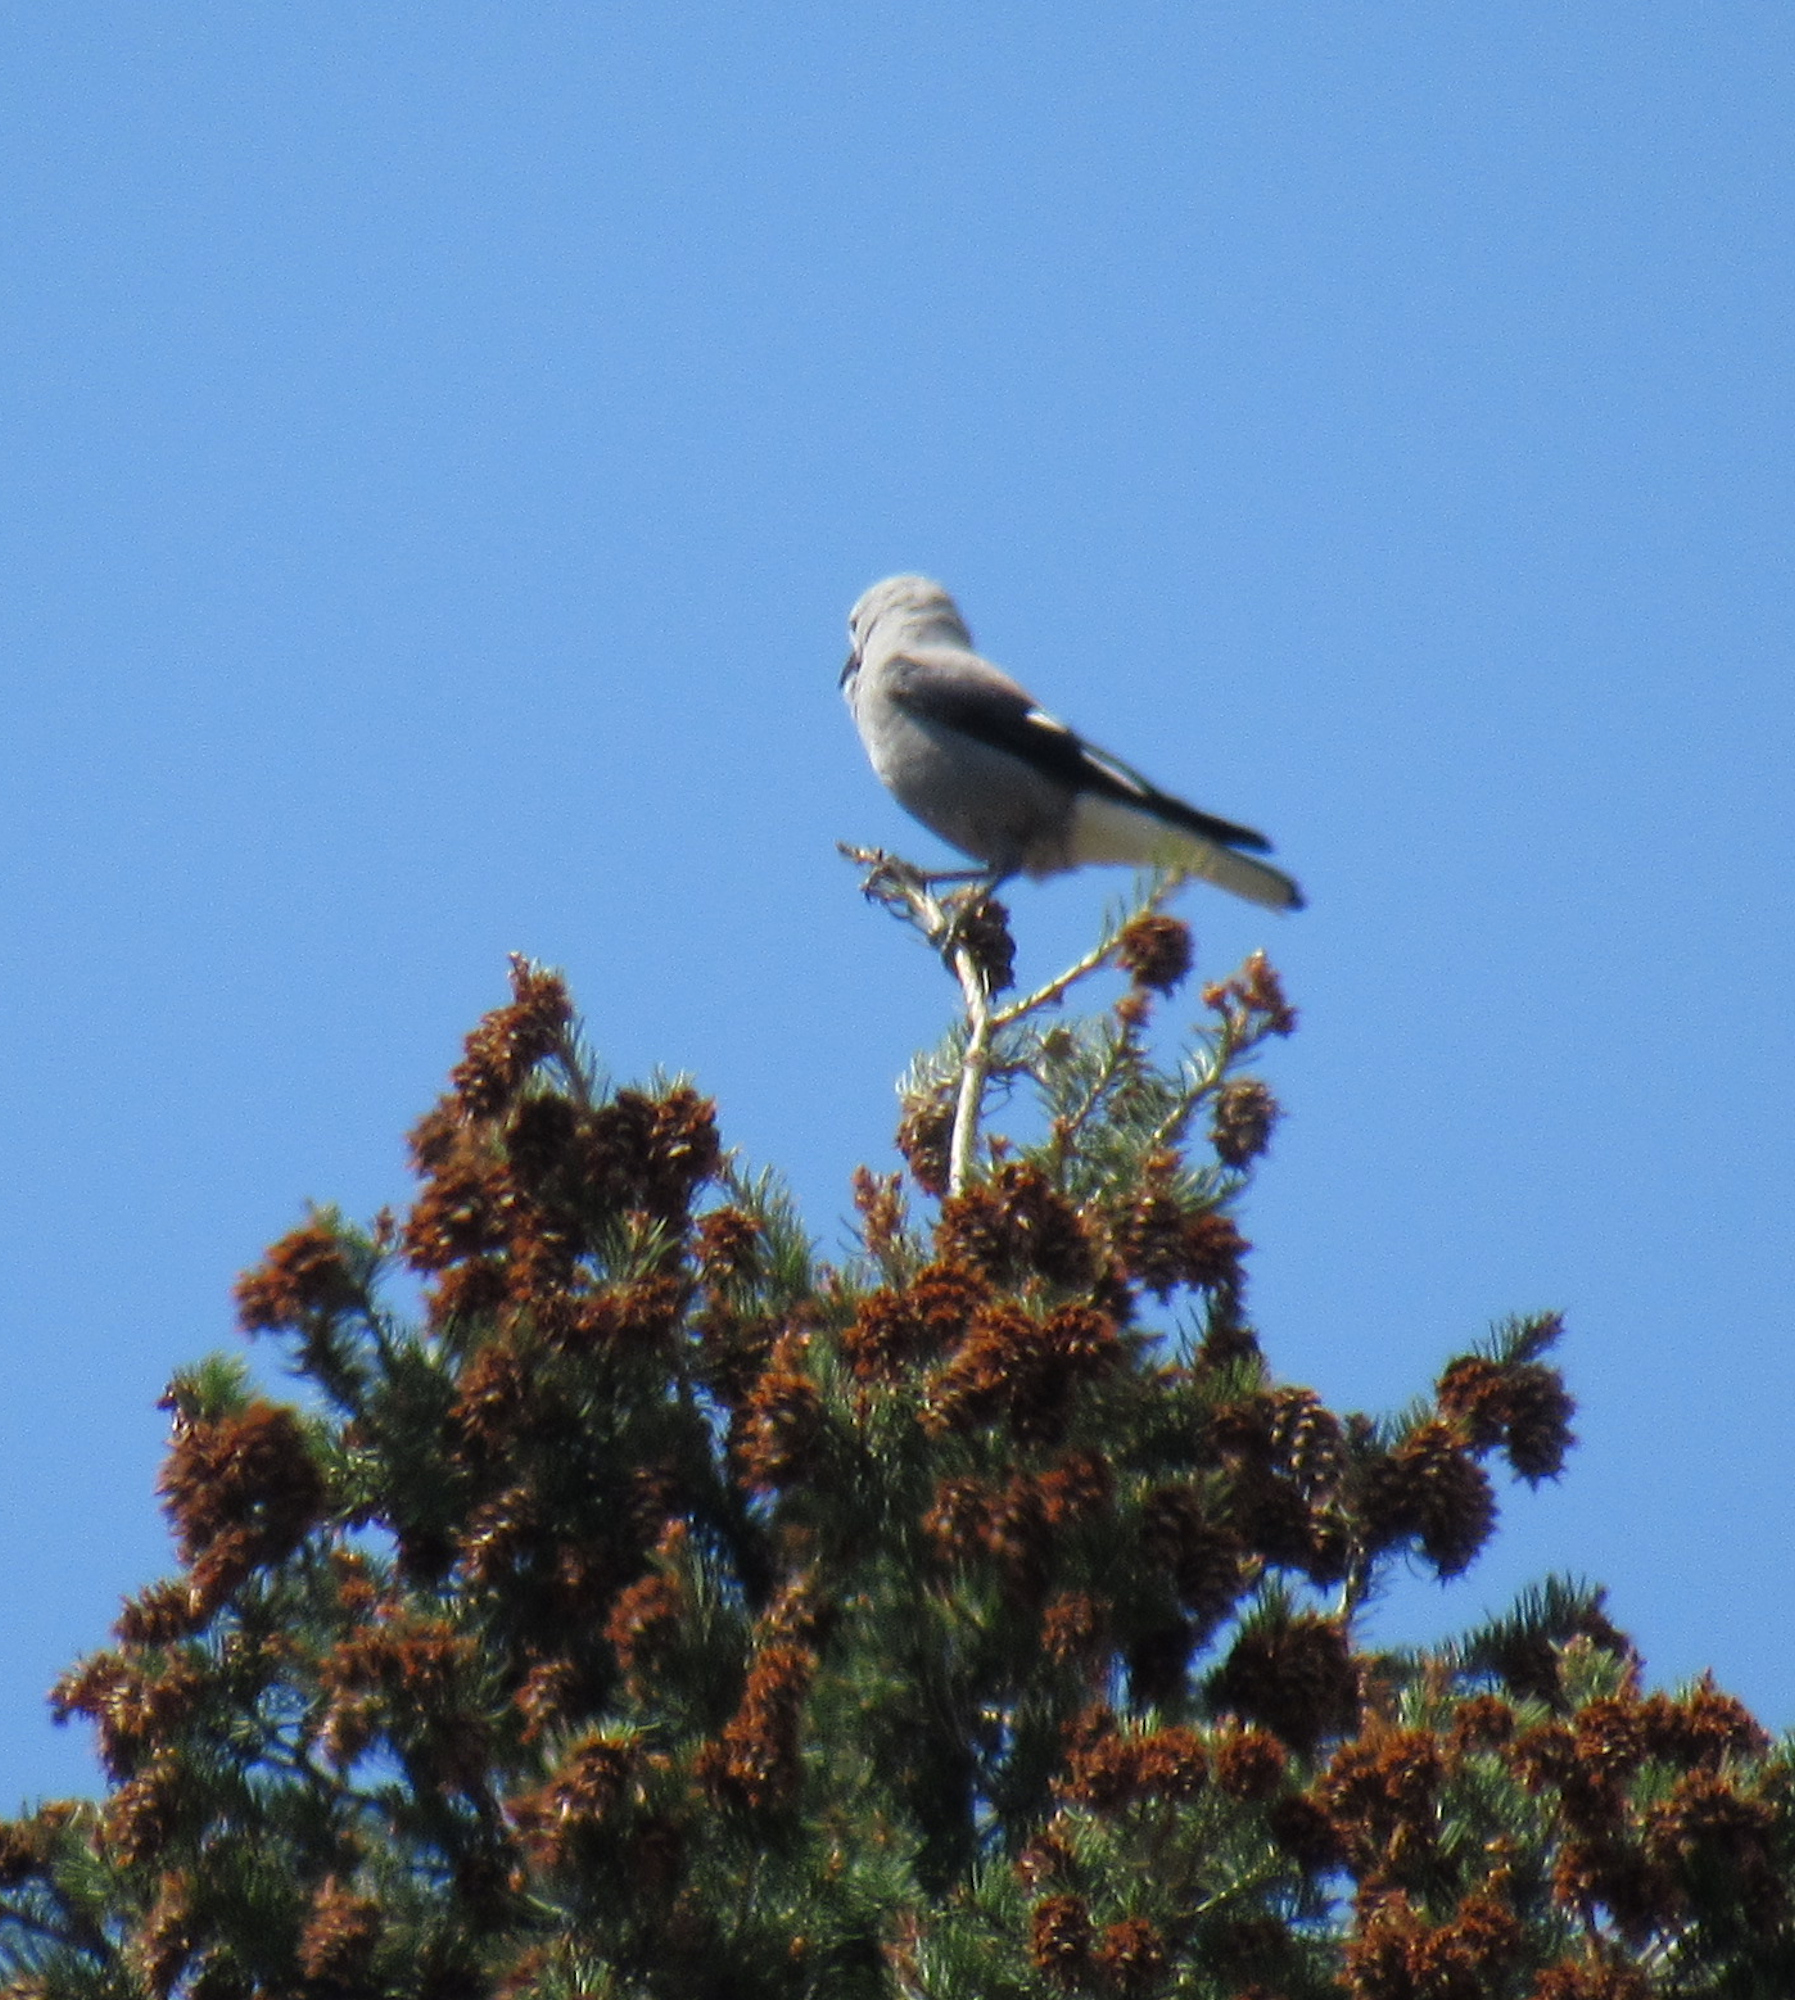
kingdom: Animalia
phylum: Chordata
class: Aves
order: Passeriformes
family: Corvidae
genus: Nucifraga
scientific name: Nucifraga columbiana
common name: Clark's nutcracker
